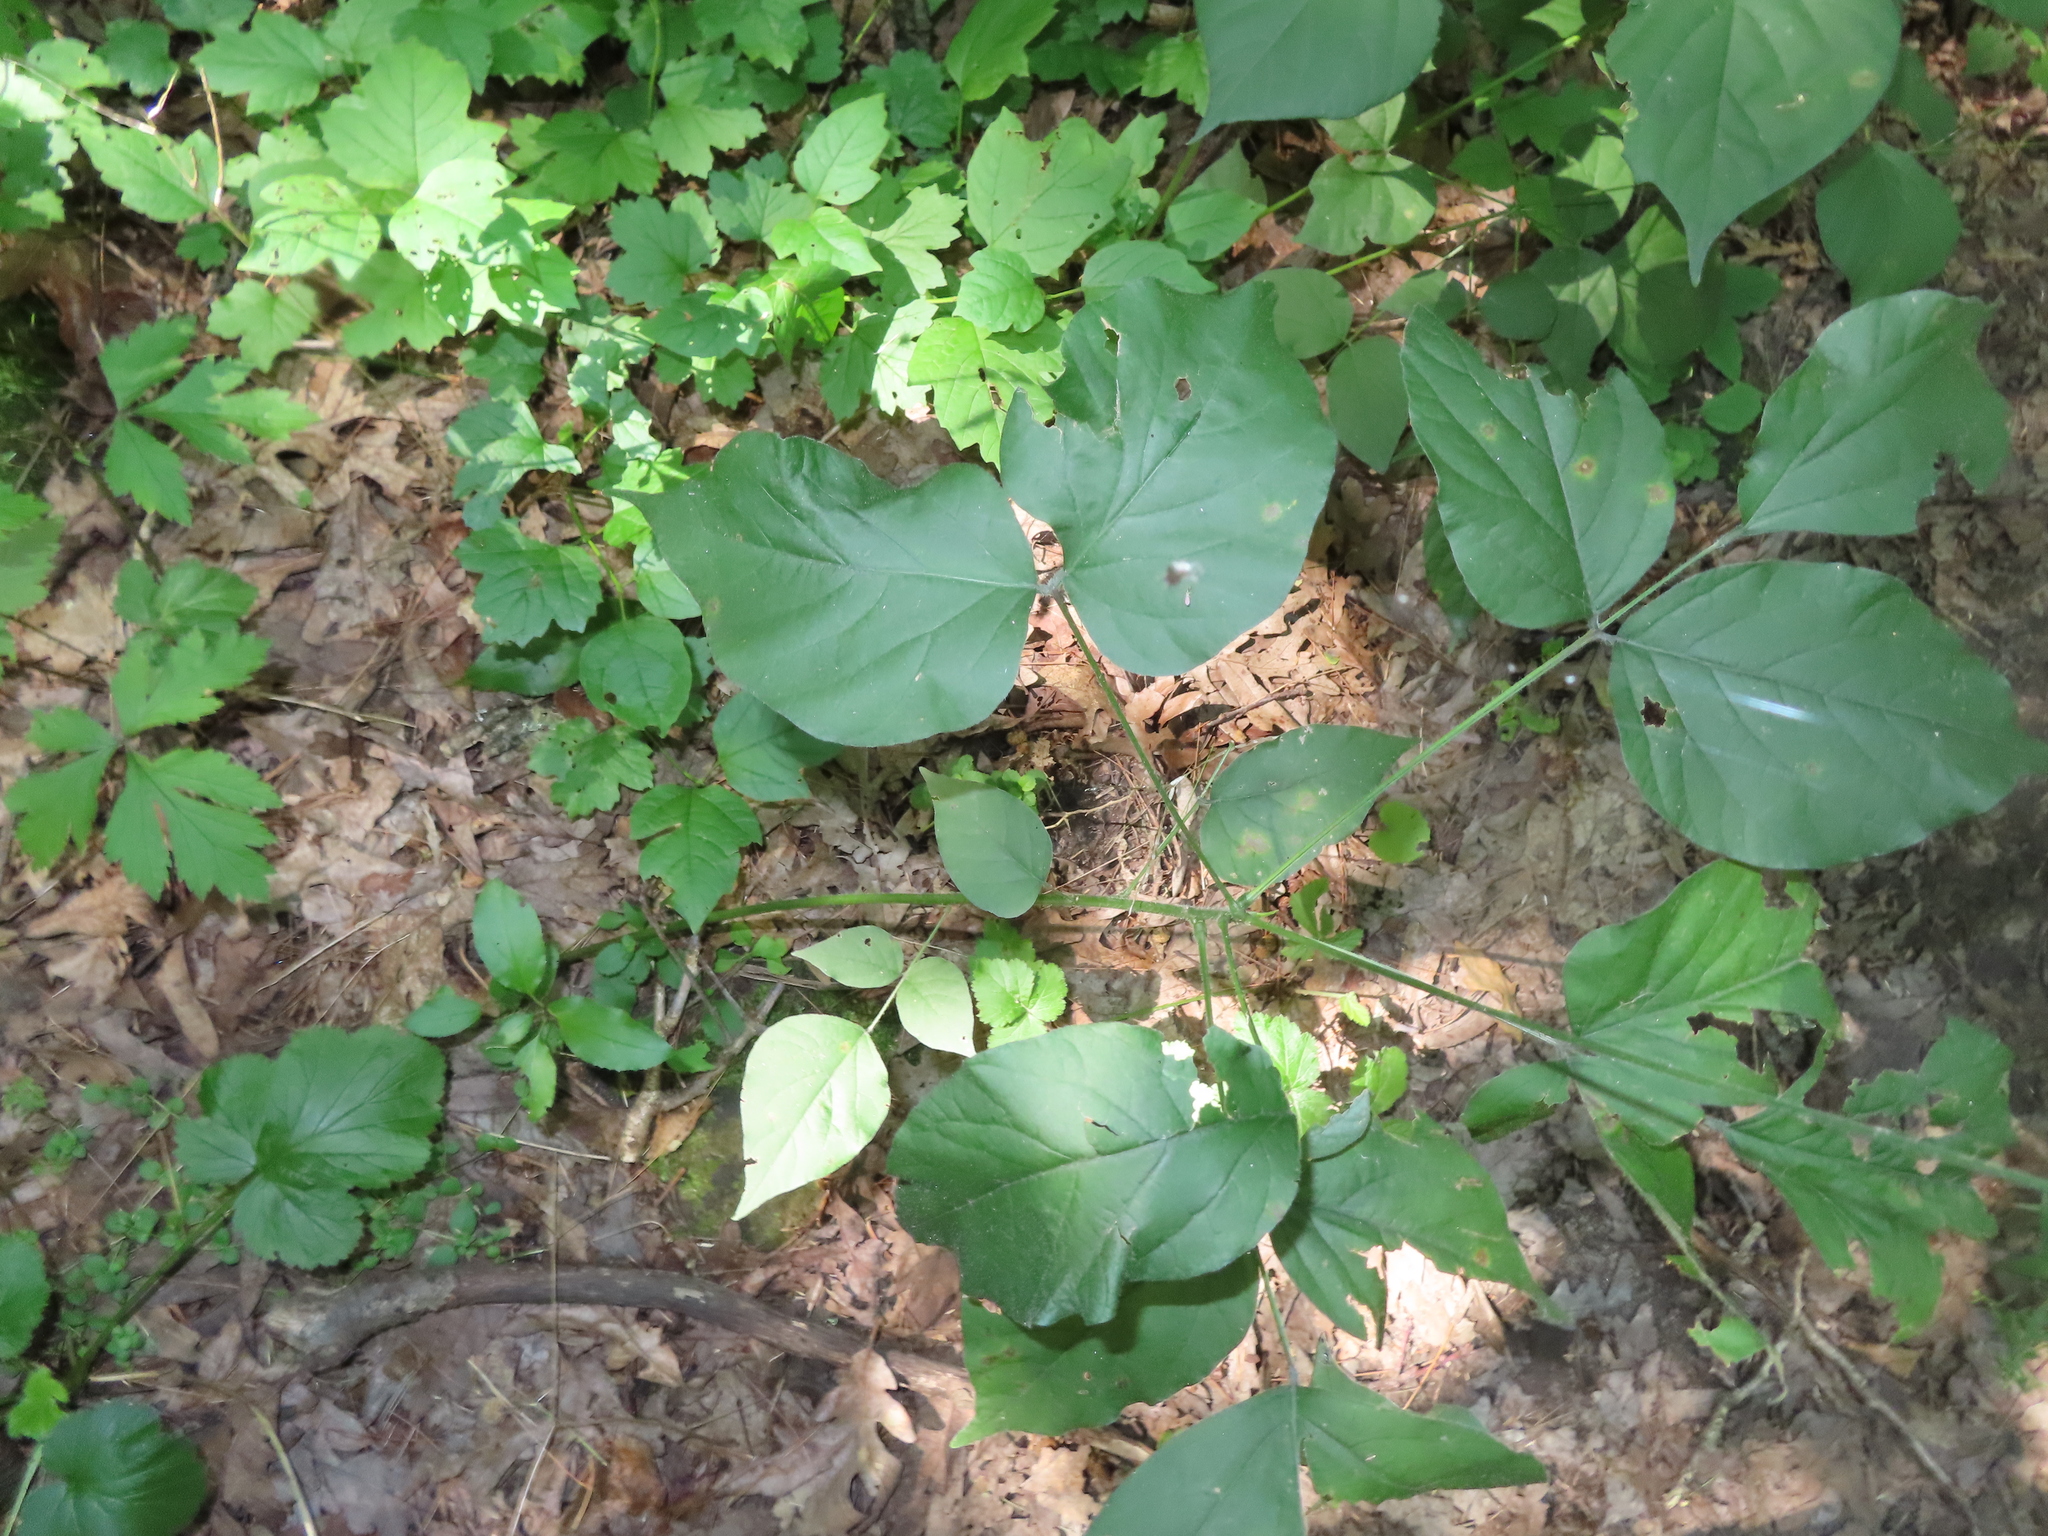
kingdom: Plantae
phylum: Tracheophyta
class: Magnoliopsida
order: Fabales
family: Fabaceae
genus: Hylodesmum
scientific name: Hylodesmum glutinosum
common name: Clustered-leaved tick-trefoil
